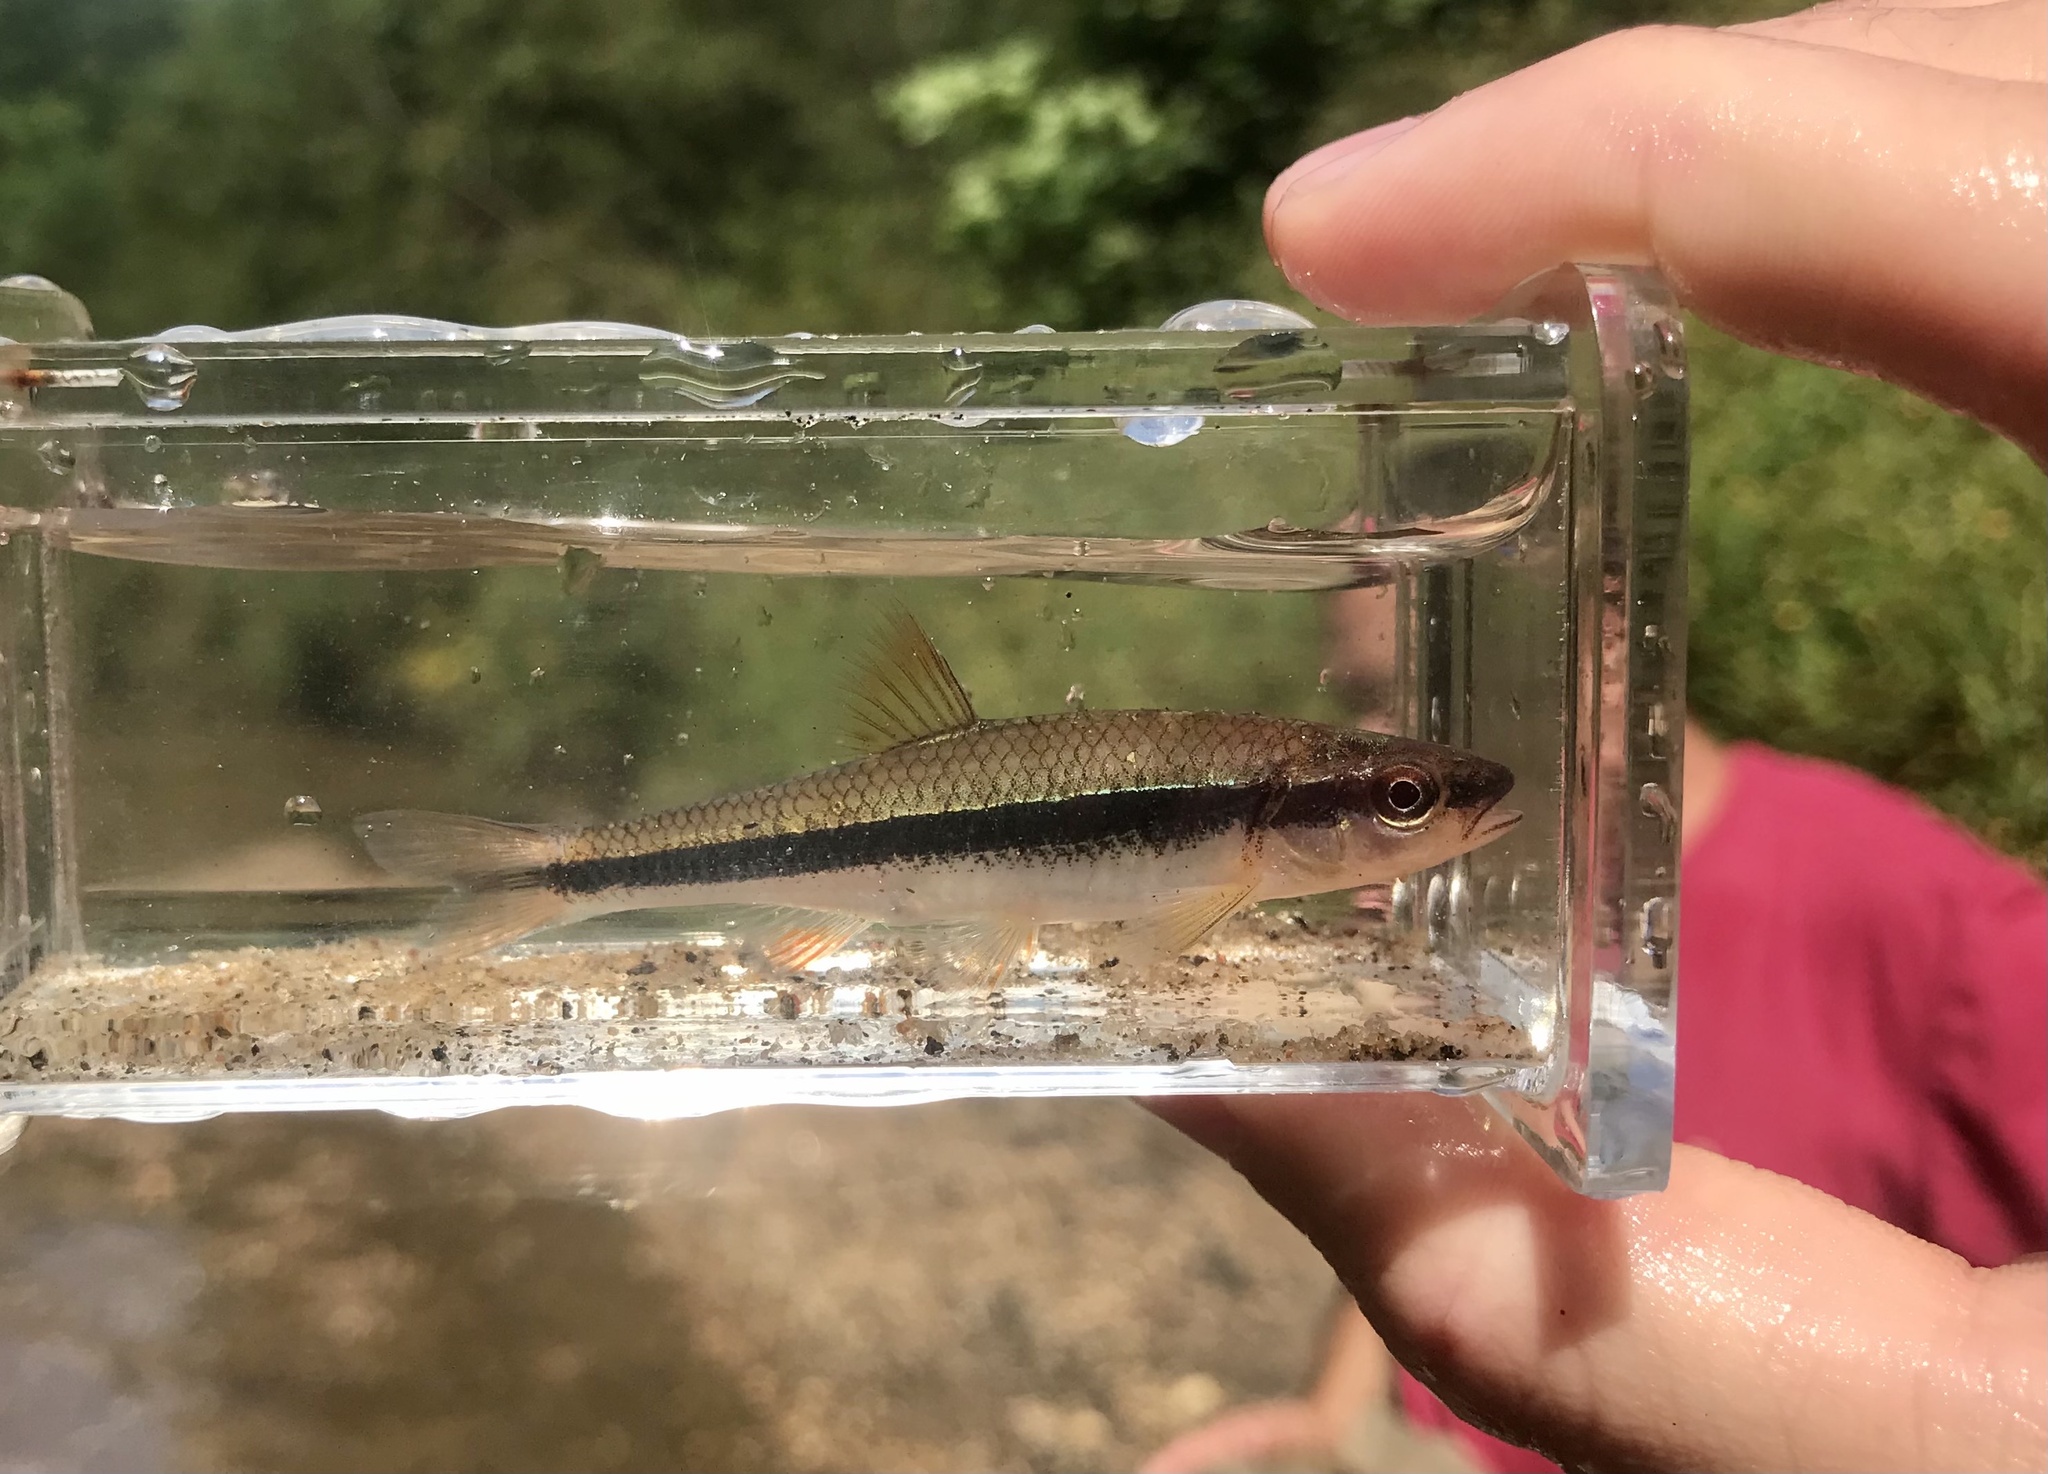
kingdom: Animalia
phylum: Chordata
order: Cypriniformes
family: Cyprinidae
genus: Notropis
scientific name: Notropis lutipinnis
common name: Yellowfin shiner
